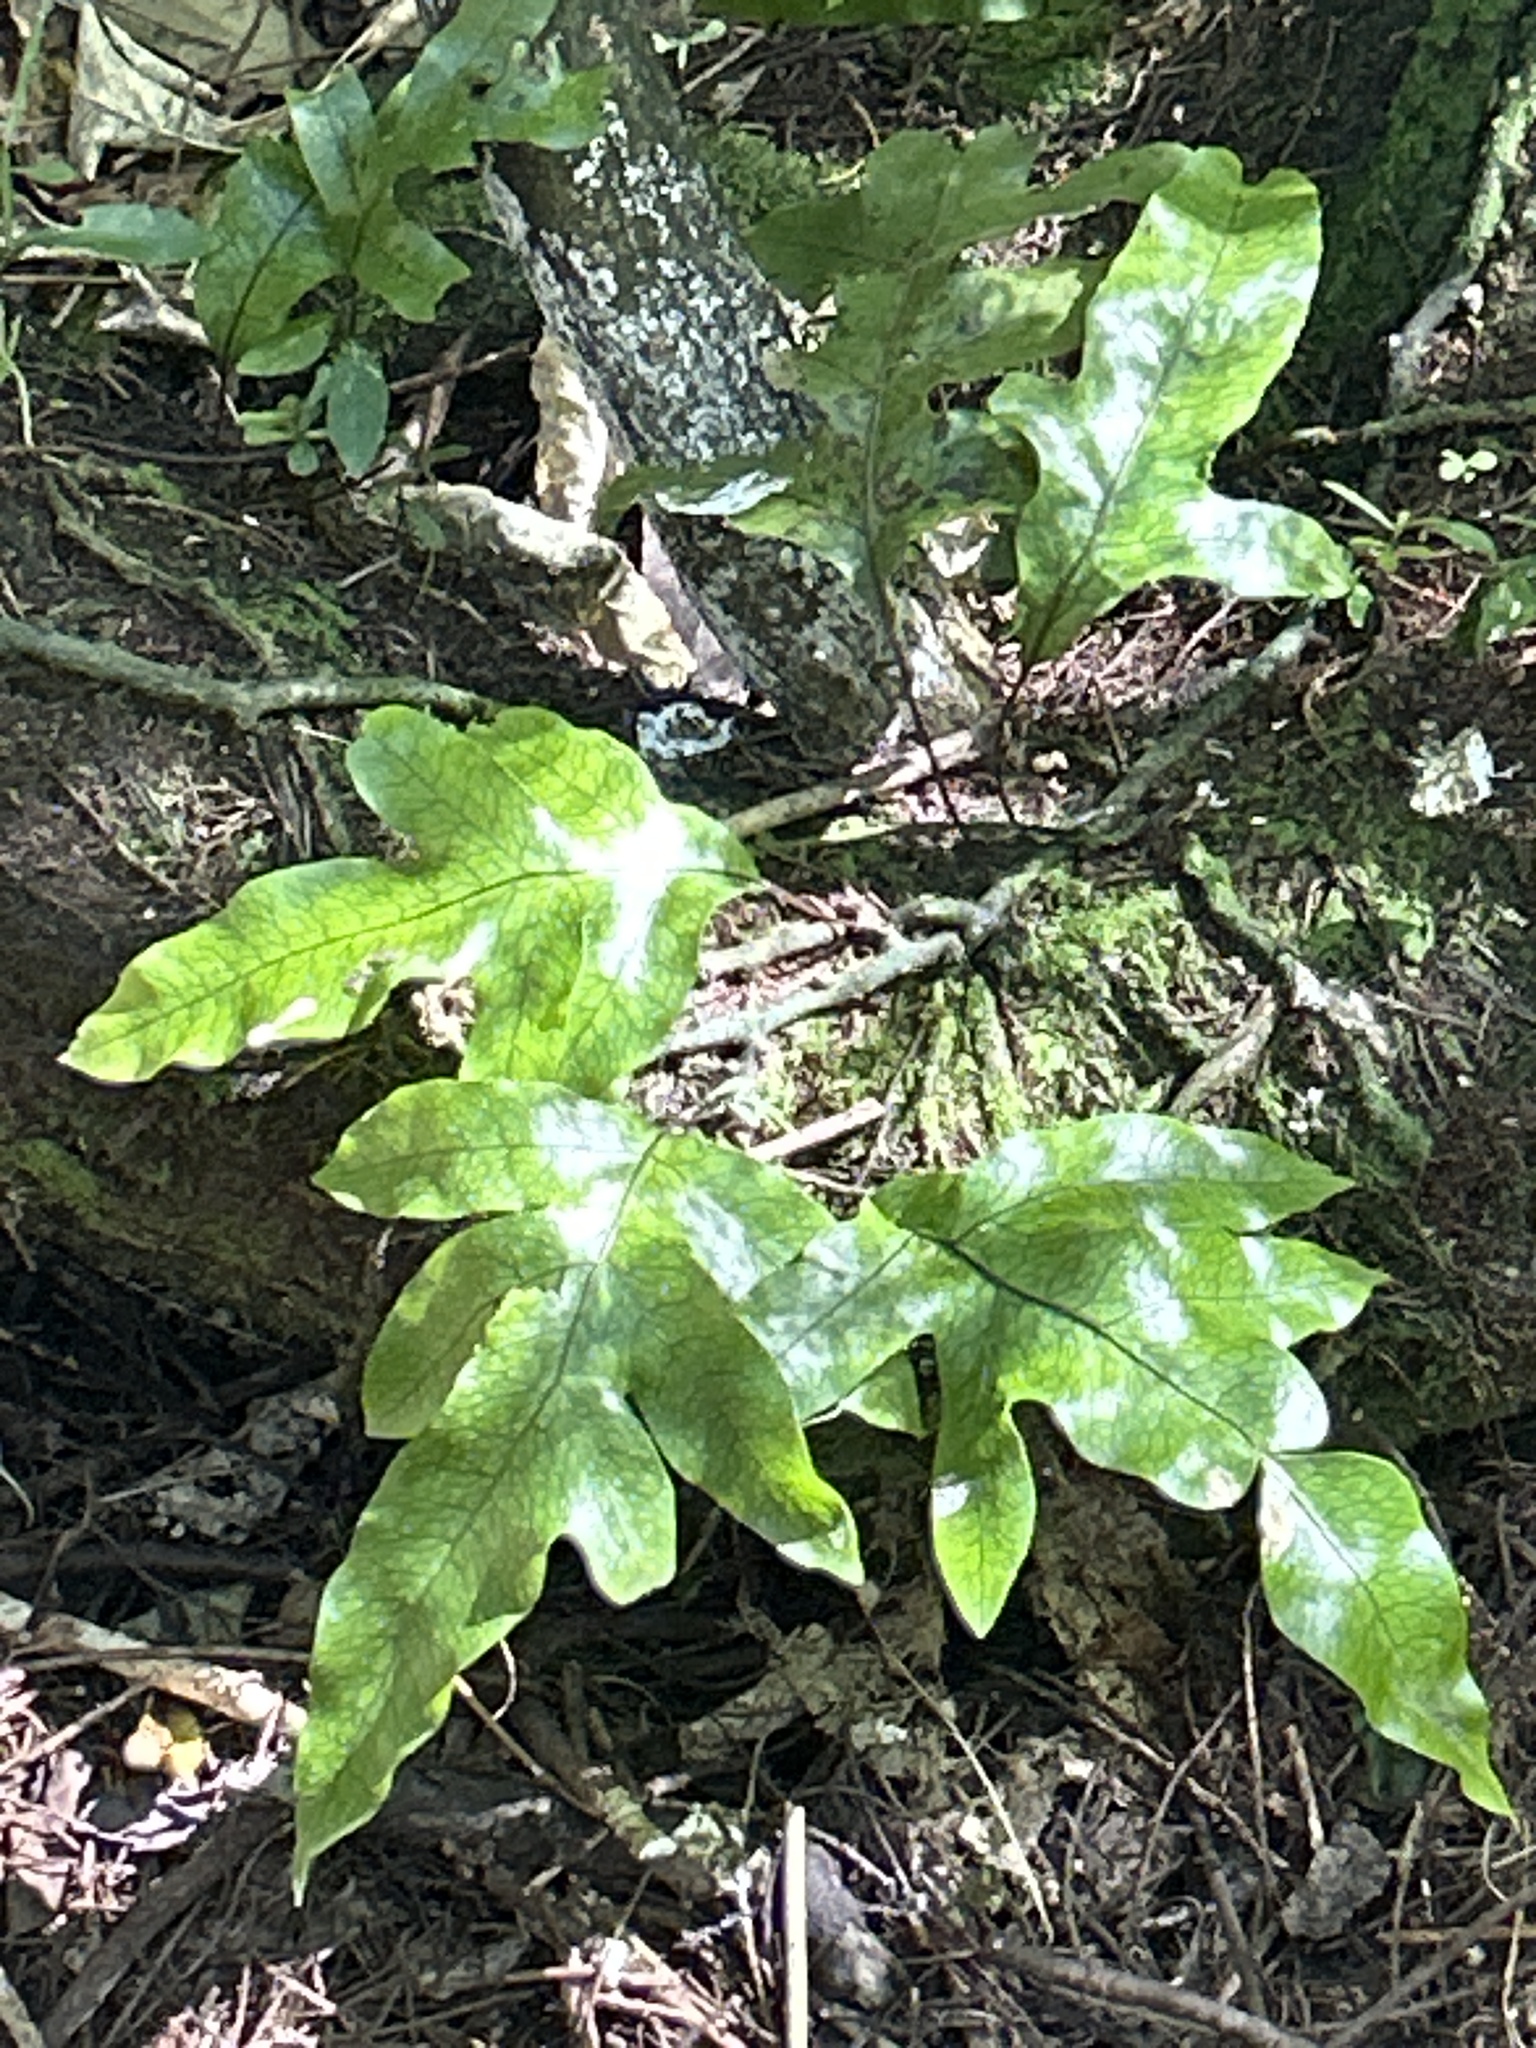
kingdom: Plantae
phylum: Tracheophyta
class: Polypodiopsida
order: Polypodiales
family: Polypodiaceae
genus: Lecanopteris
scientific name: Lecanopteris pustulata
